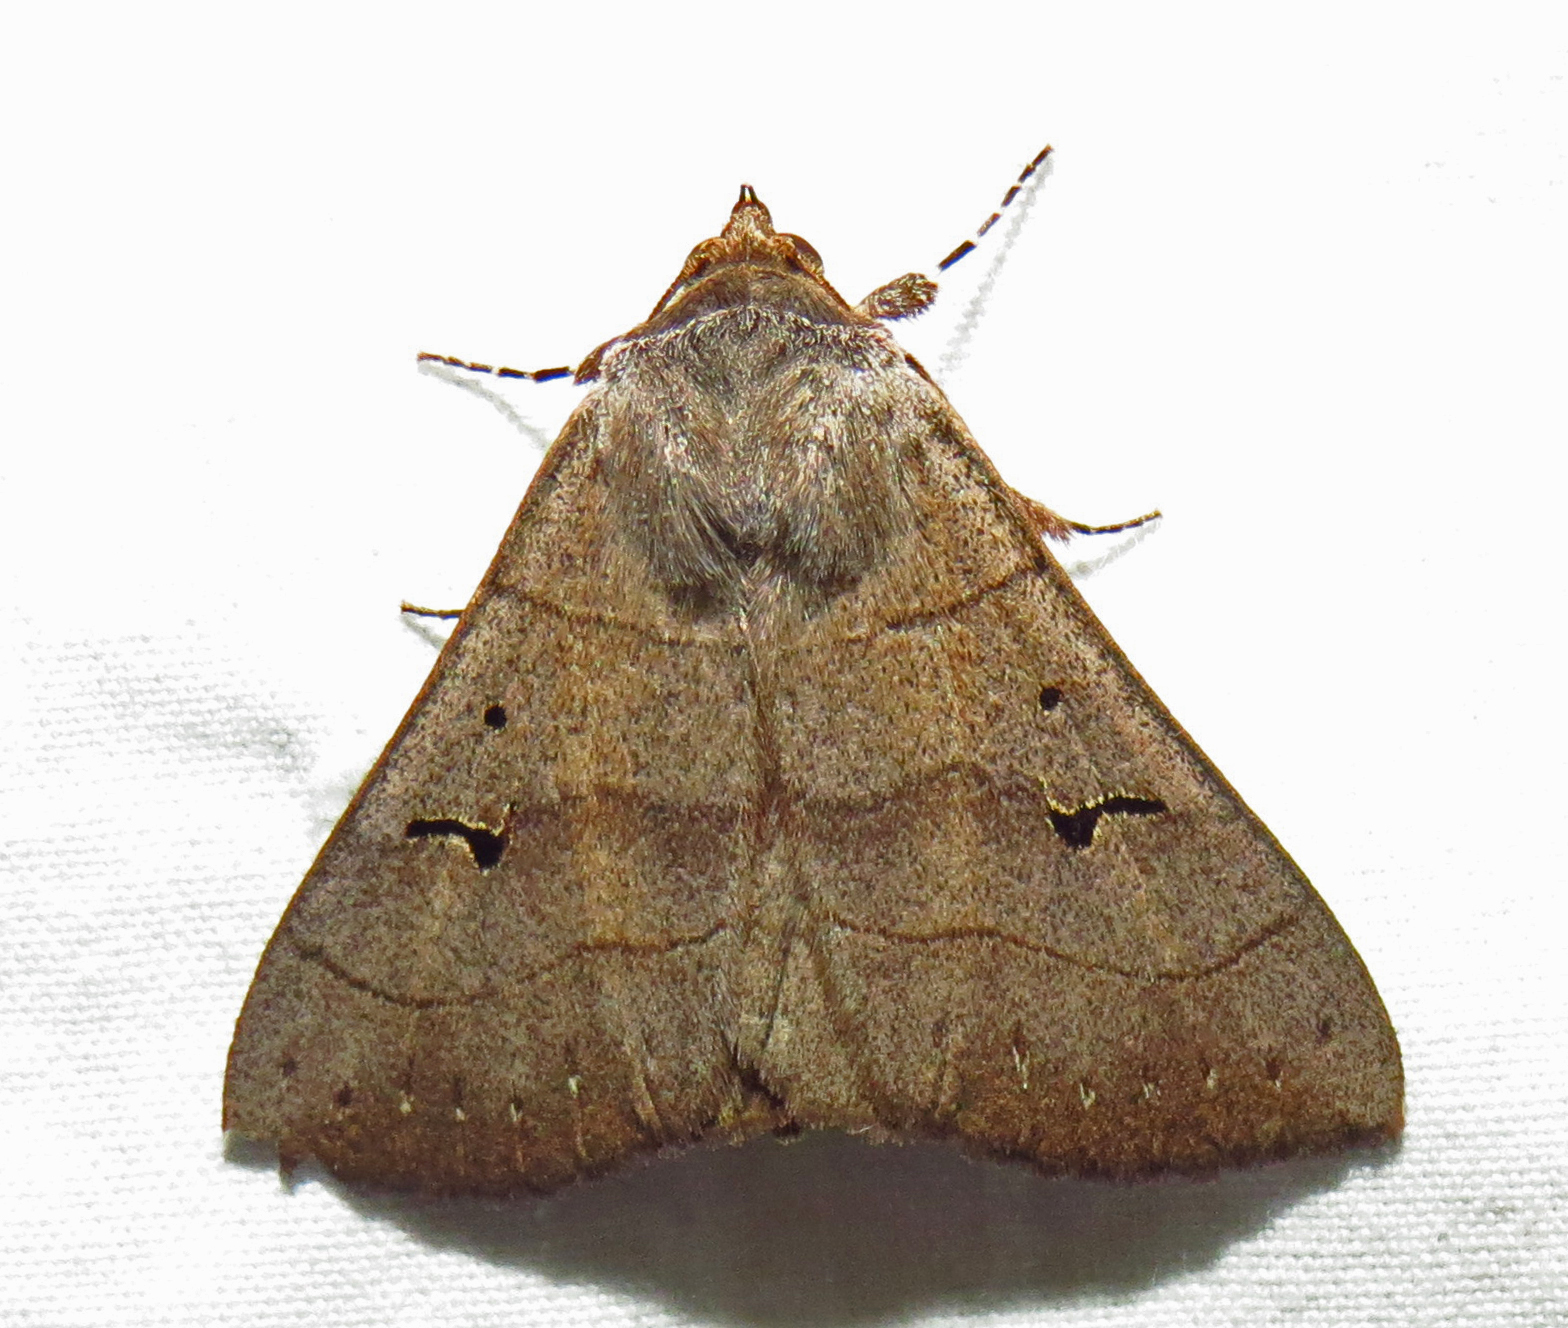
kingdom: Animalia
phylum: Arthropoda
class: Insecta
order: Lepidoptera
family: Erebidae
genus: Panopoda
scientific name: Panopoda carneicosta
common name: Brown panopoda moth
